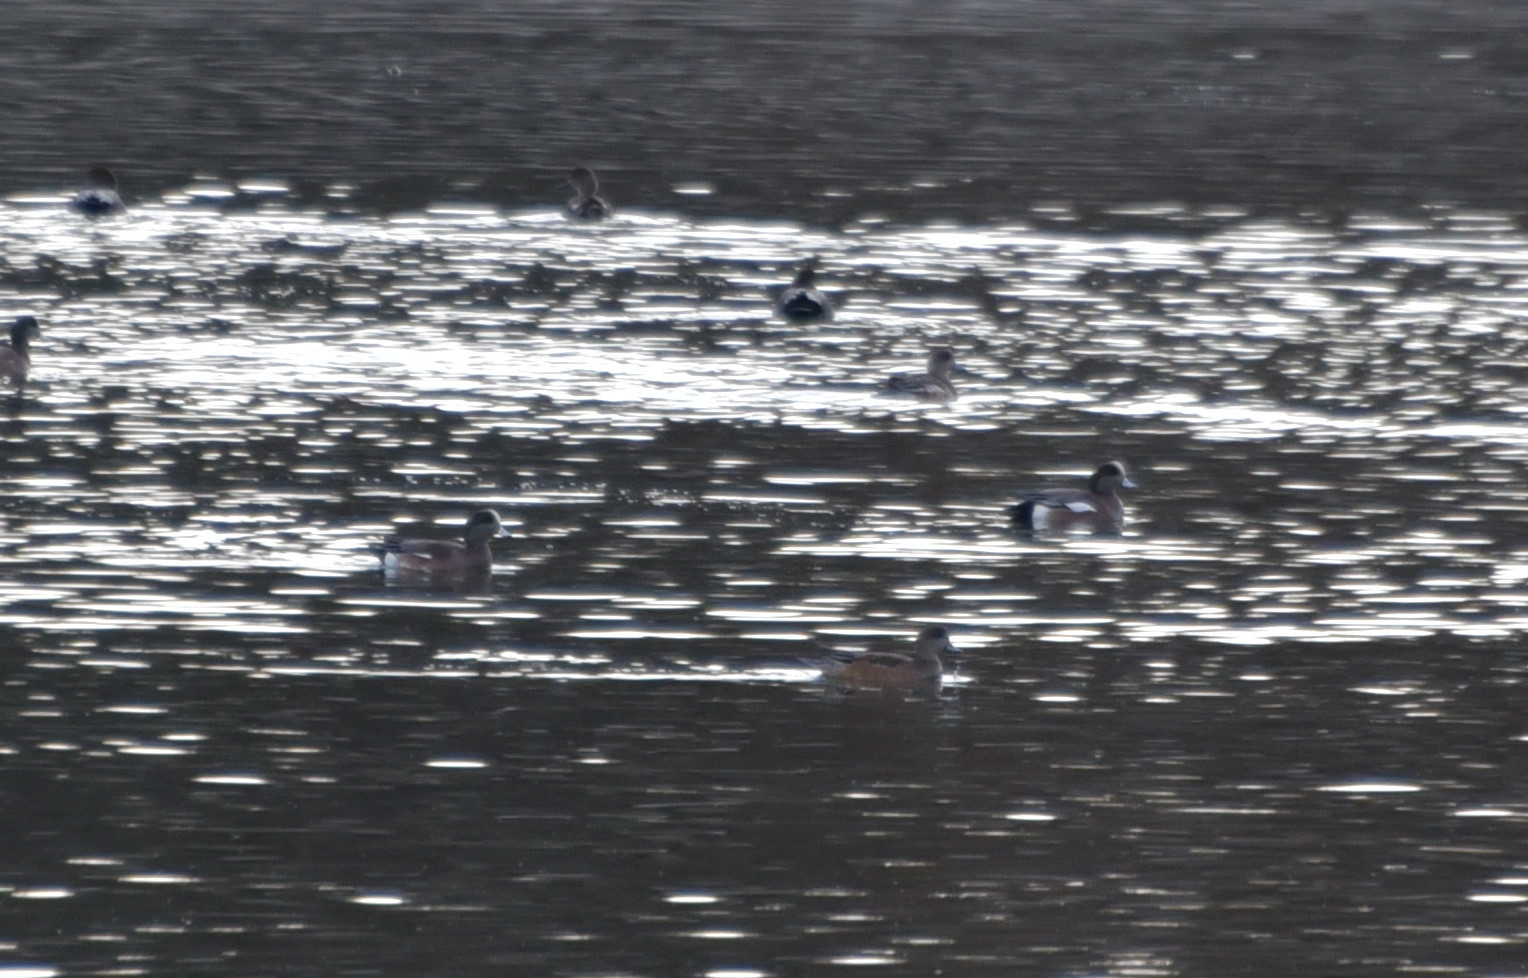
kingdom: Animalia
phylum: Chordata
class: Aves
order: Anseriformes
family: Anatidae
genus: Mareca
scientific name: Mareca americana
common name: American wigeon
